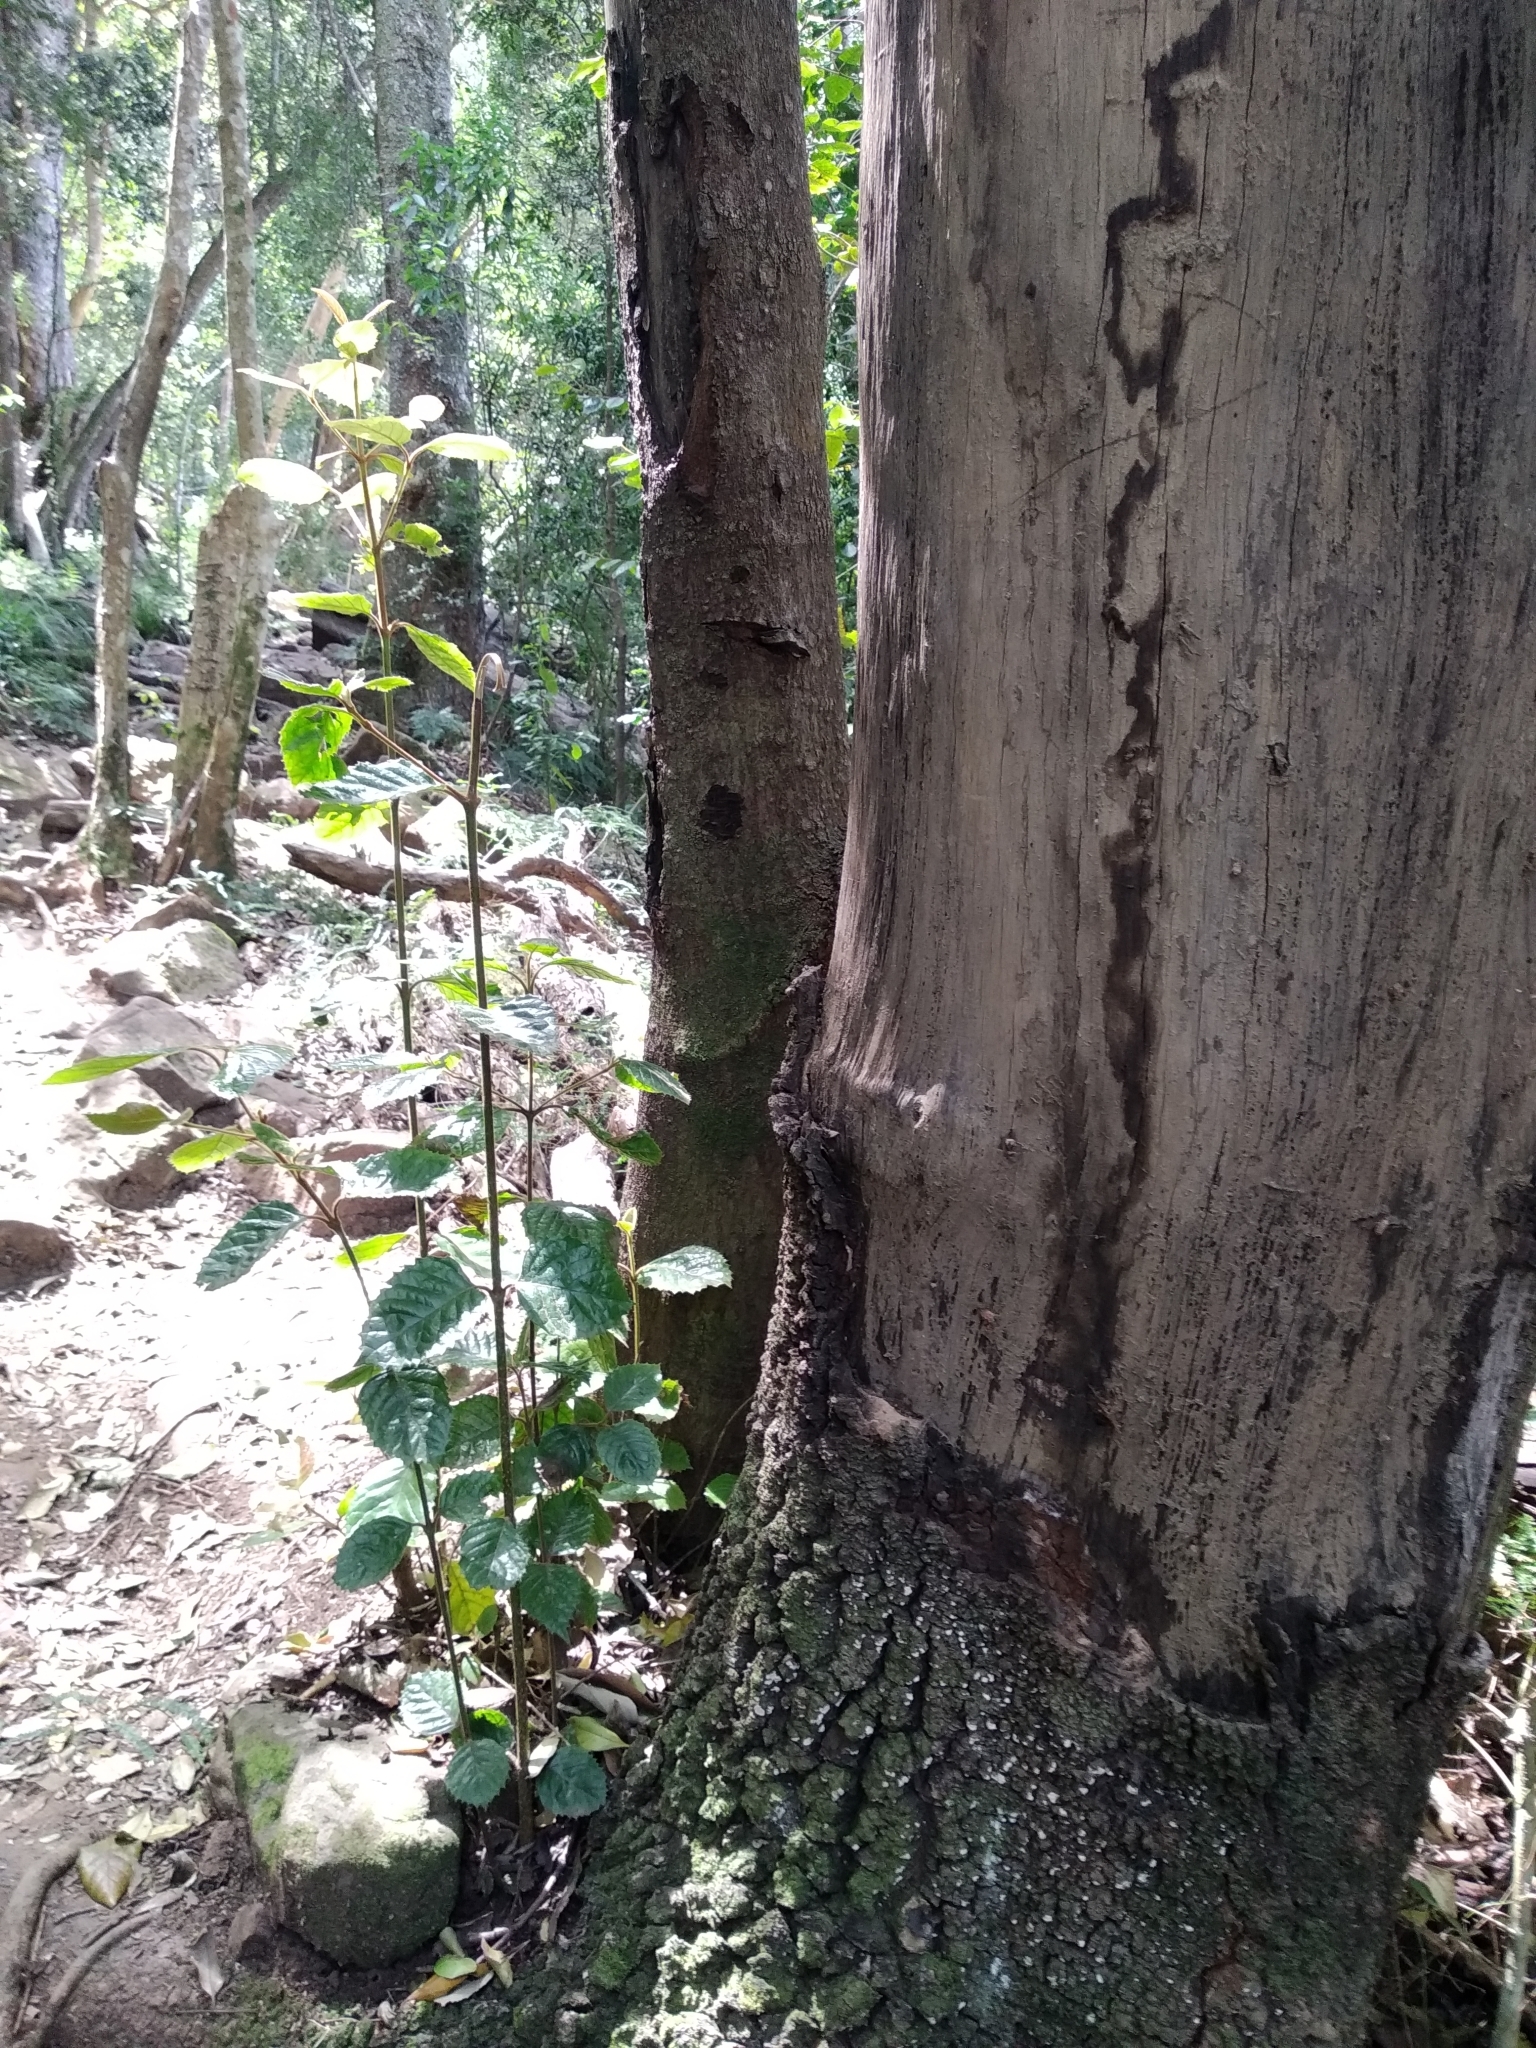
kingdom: Plantae
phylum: Tracheophyta
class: Magnoliopsida
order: Cornales
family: Curtisiaceae
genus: Curtisia
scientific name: Curtisia dentata
